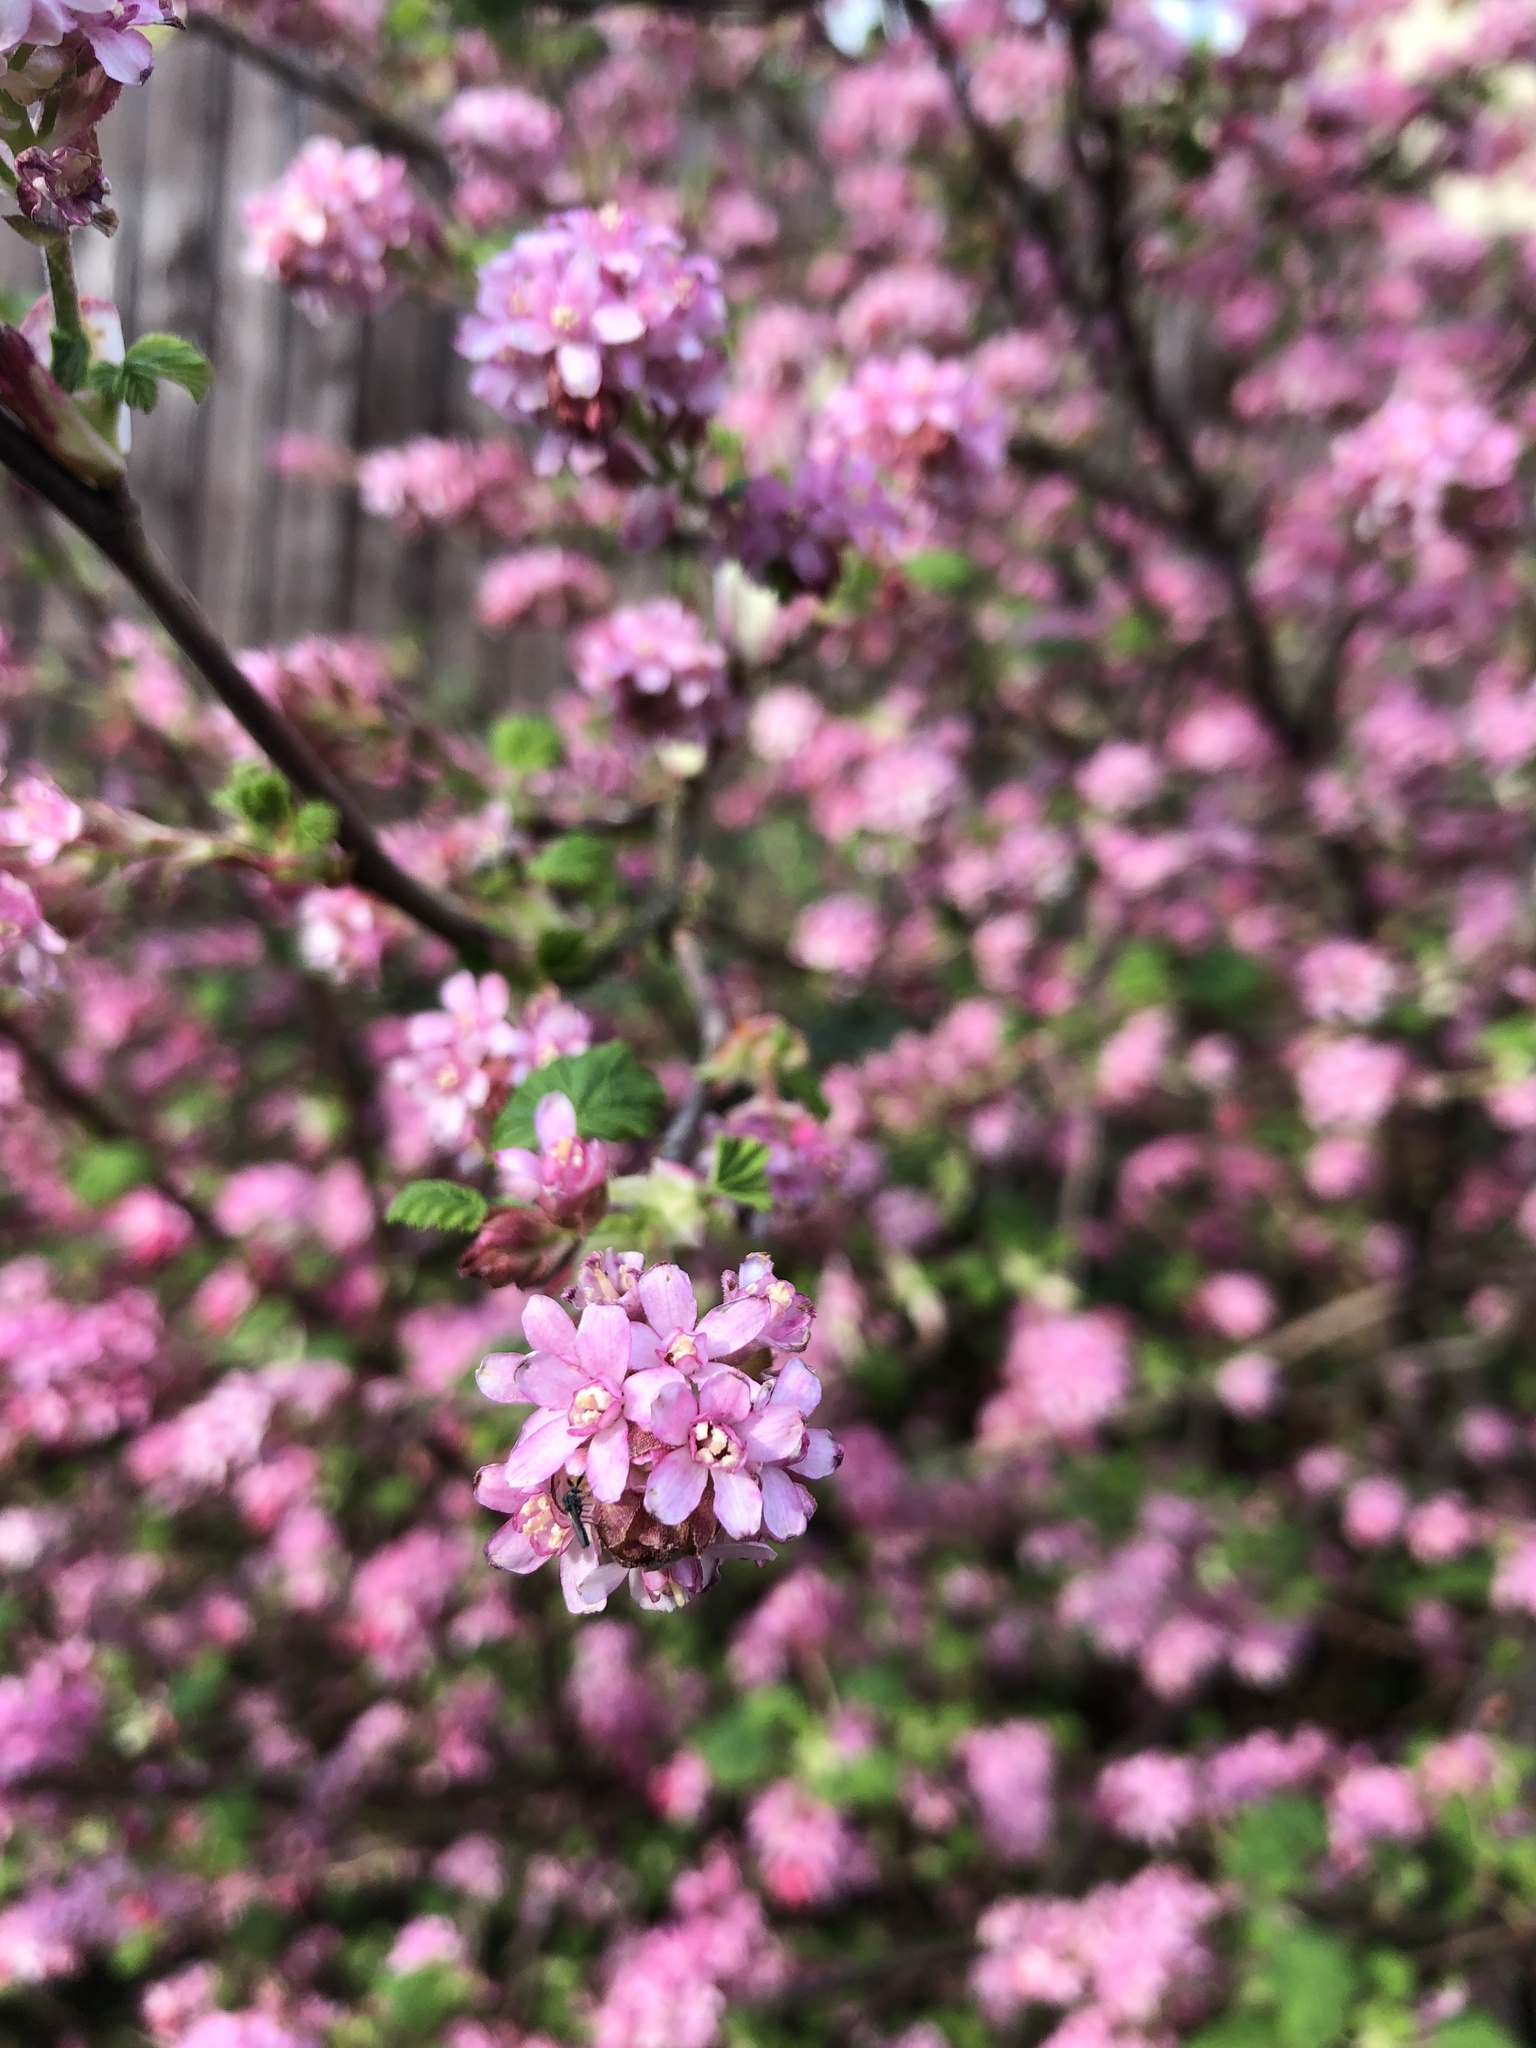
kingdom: Plantae
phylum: Tracheophyta
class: Magnoliopsida
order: Saxifragales
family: Grossulariaceae
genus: Ribes
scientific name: Ribes sanguineum
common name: Flowering currant
